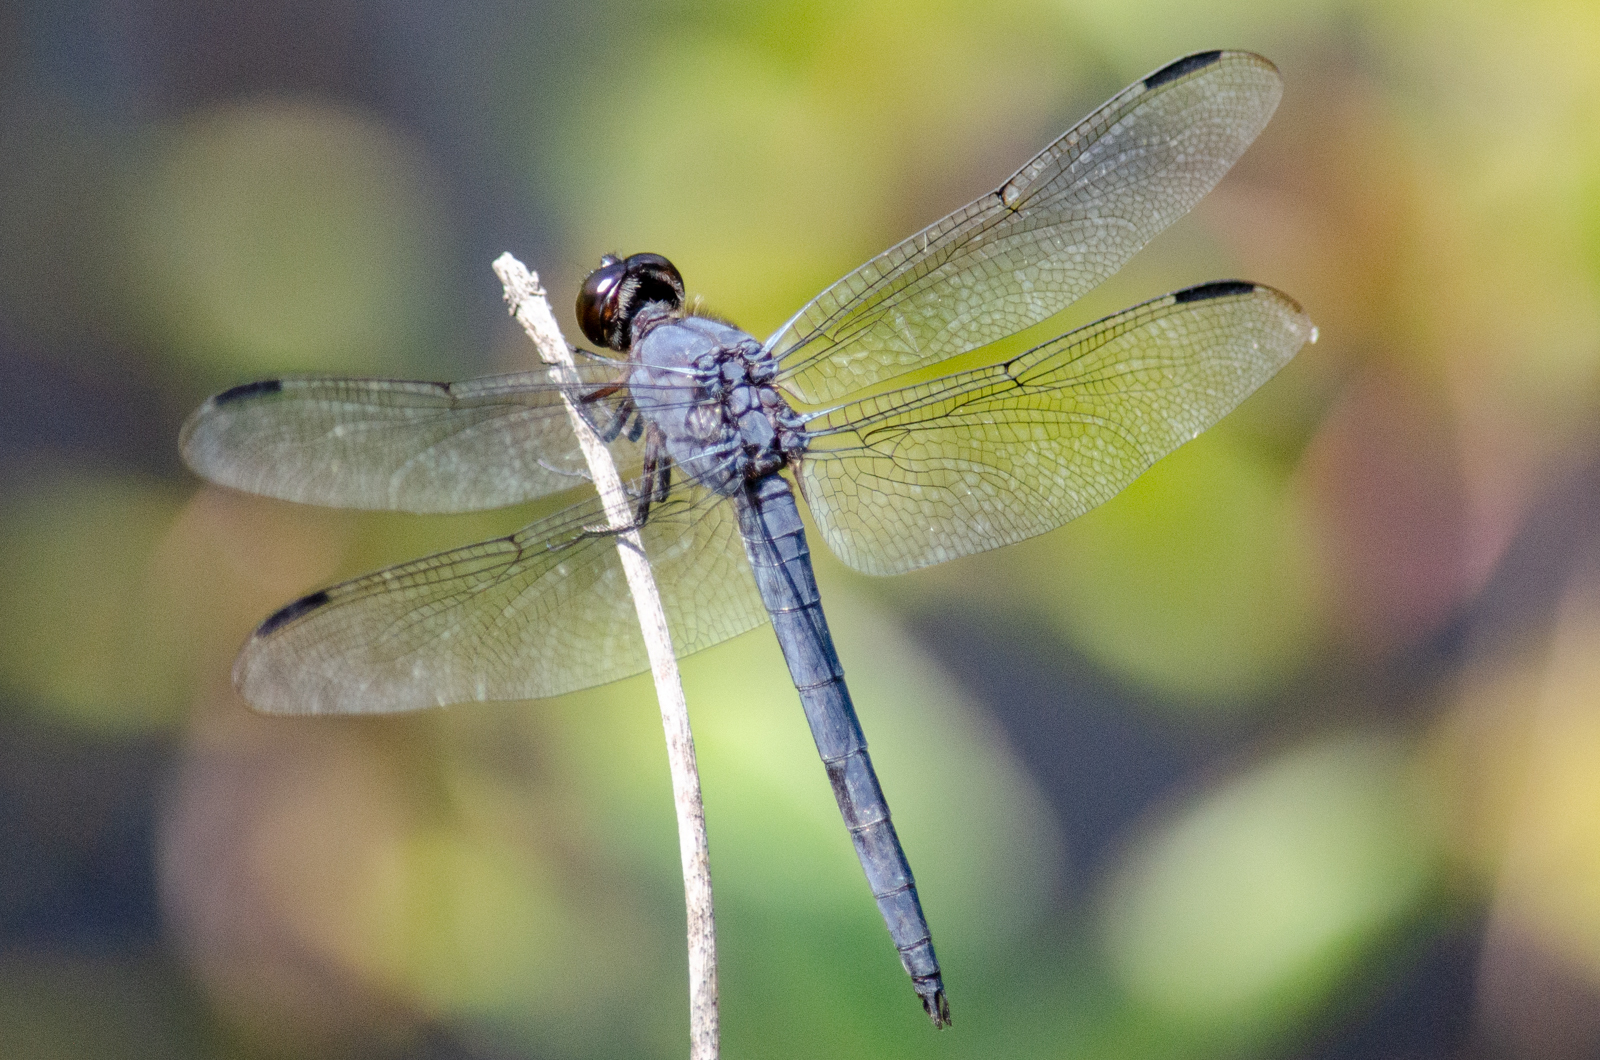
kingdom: Animalia
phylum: Arthropoda
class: Insecta
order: Odonata
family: Libellulidae
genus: Libellula
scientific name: Libellula incesta
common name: Slaty skimmer
